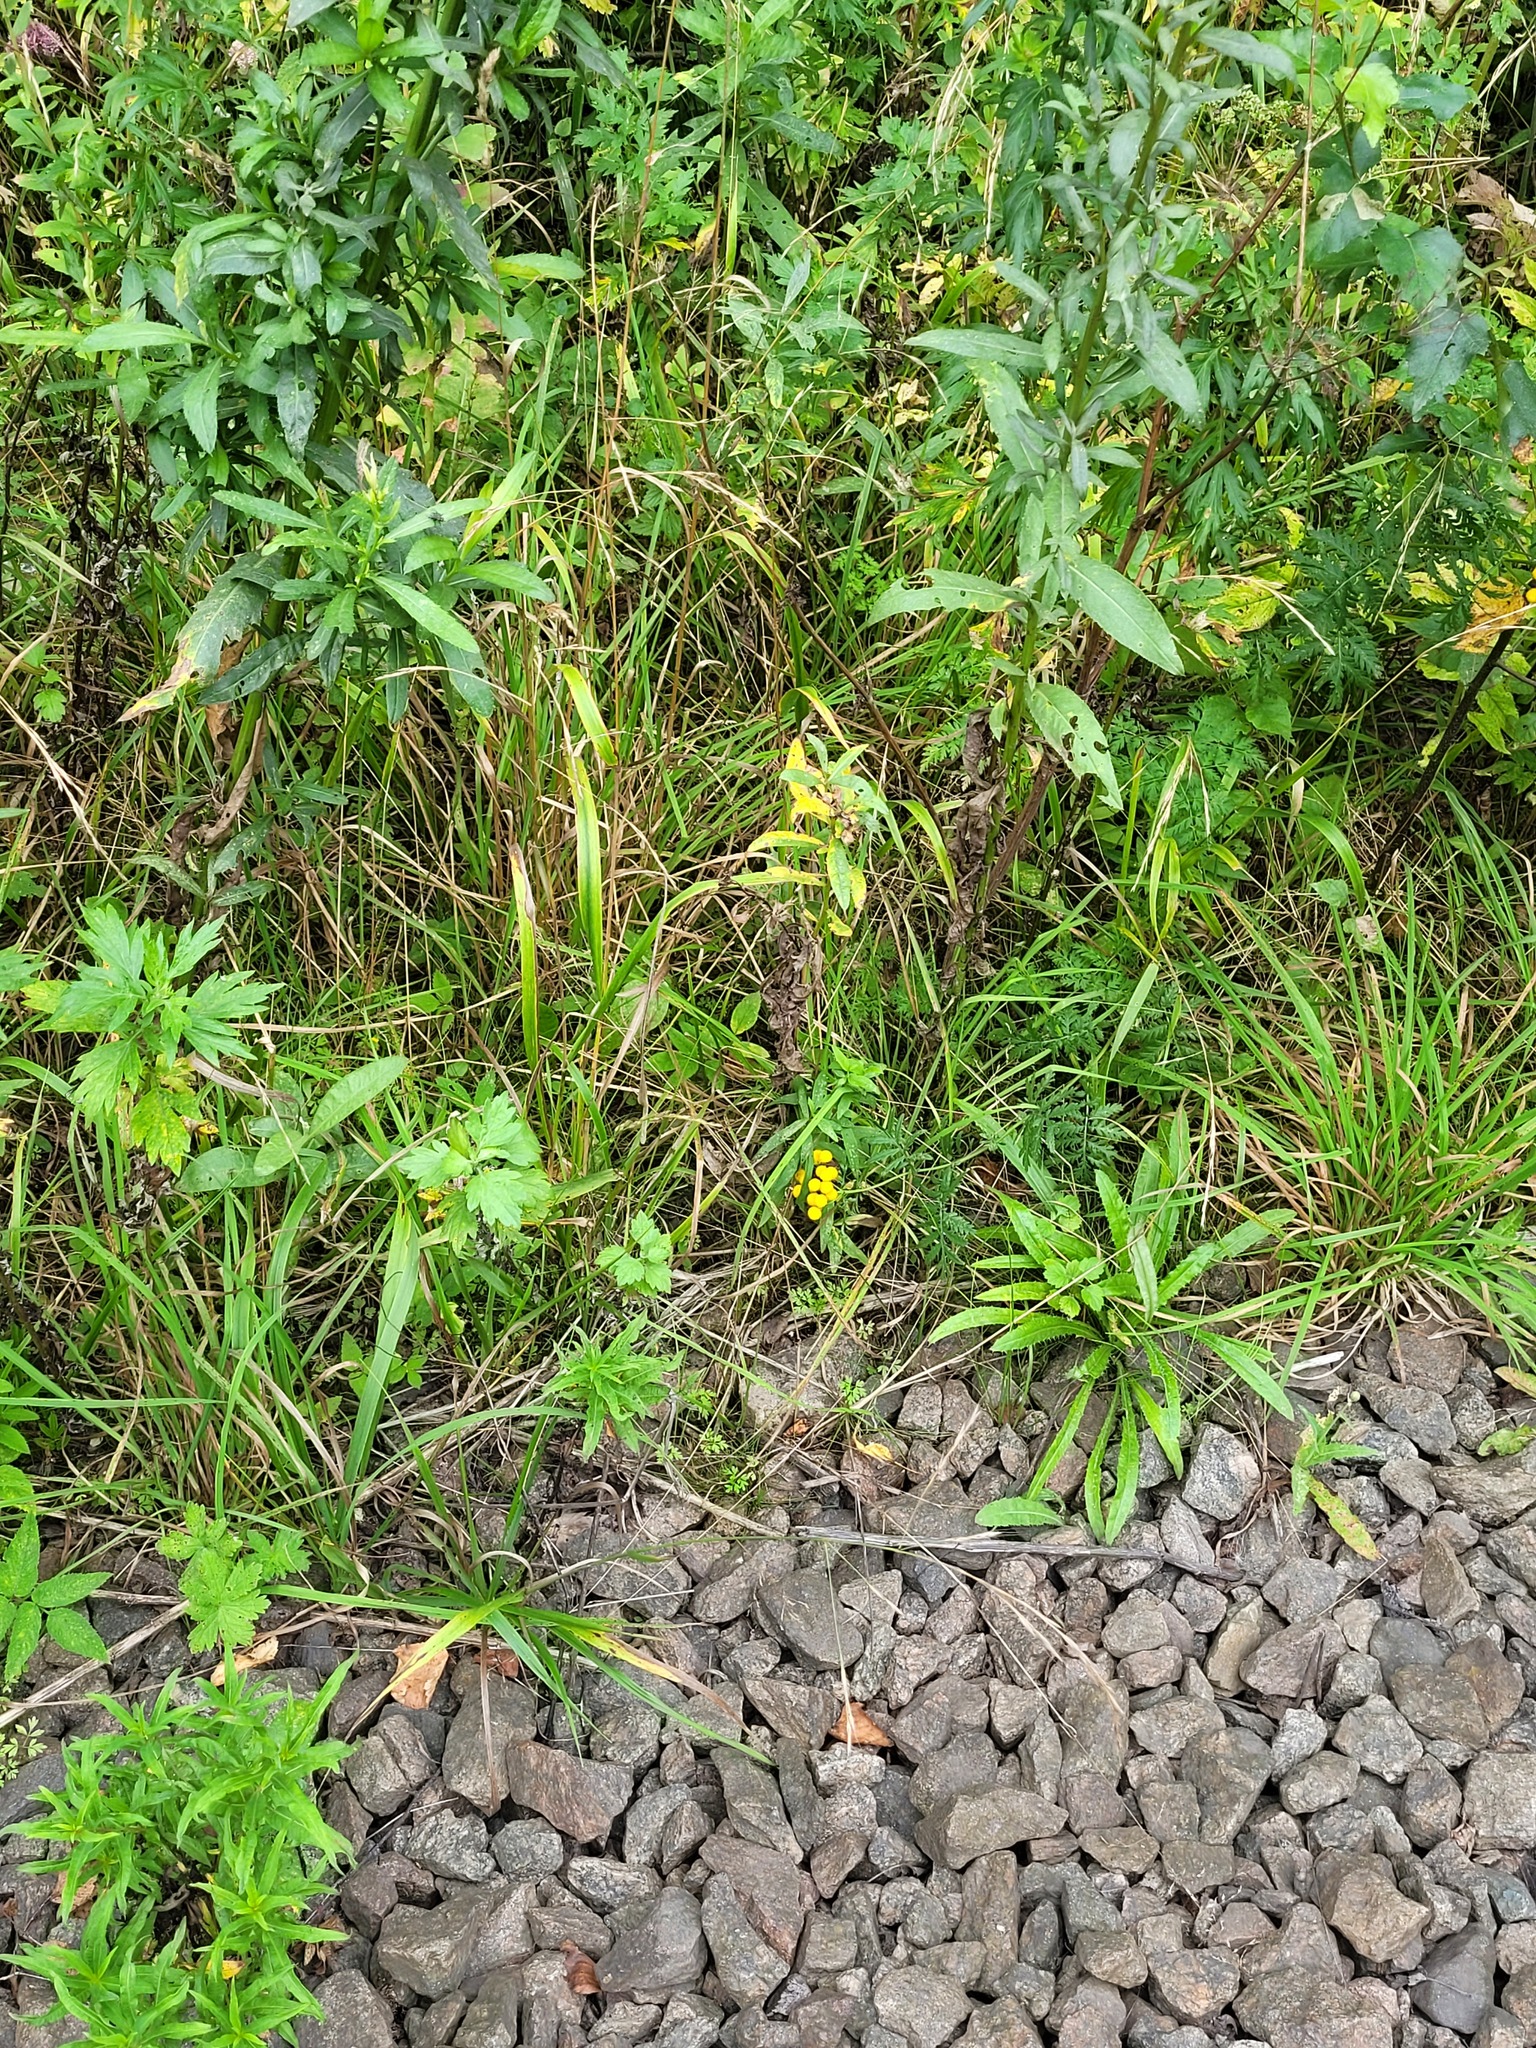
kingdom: Plantae
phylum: Tracheophyta
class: Liliopsida
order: Poales
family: Poaceae
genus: Lolium
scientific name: Lolium giganteum
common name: Giant fescue
